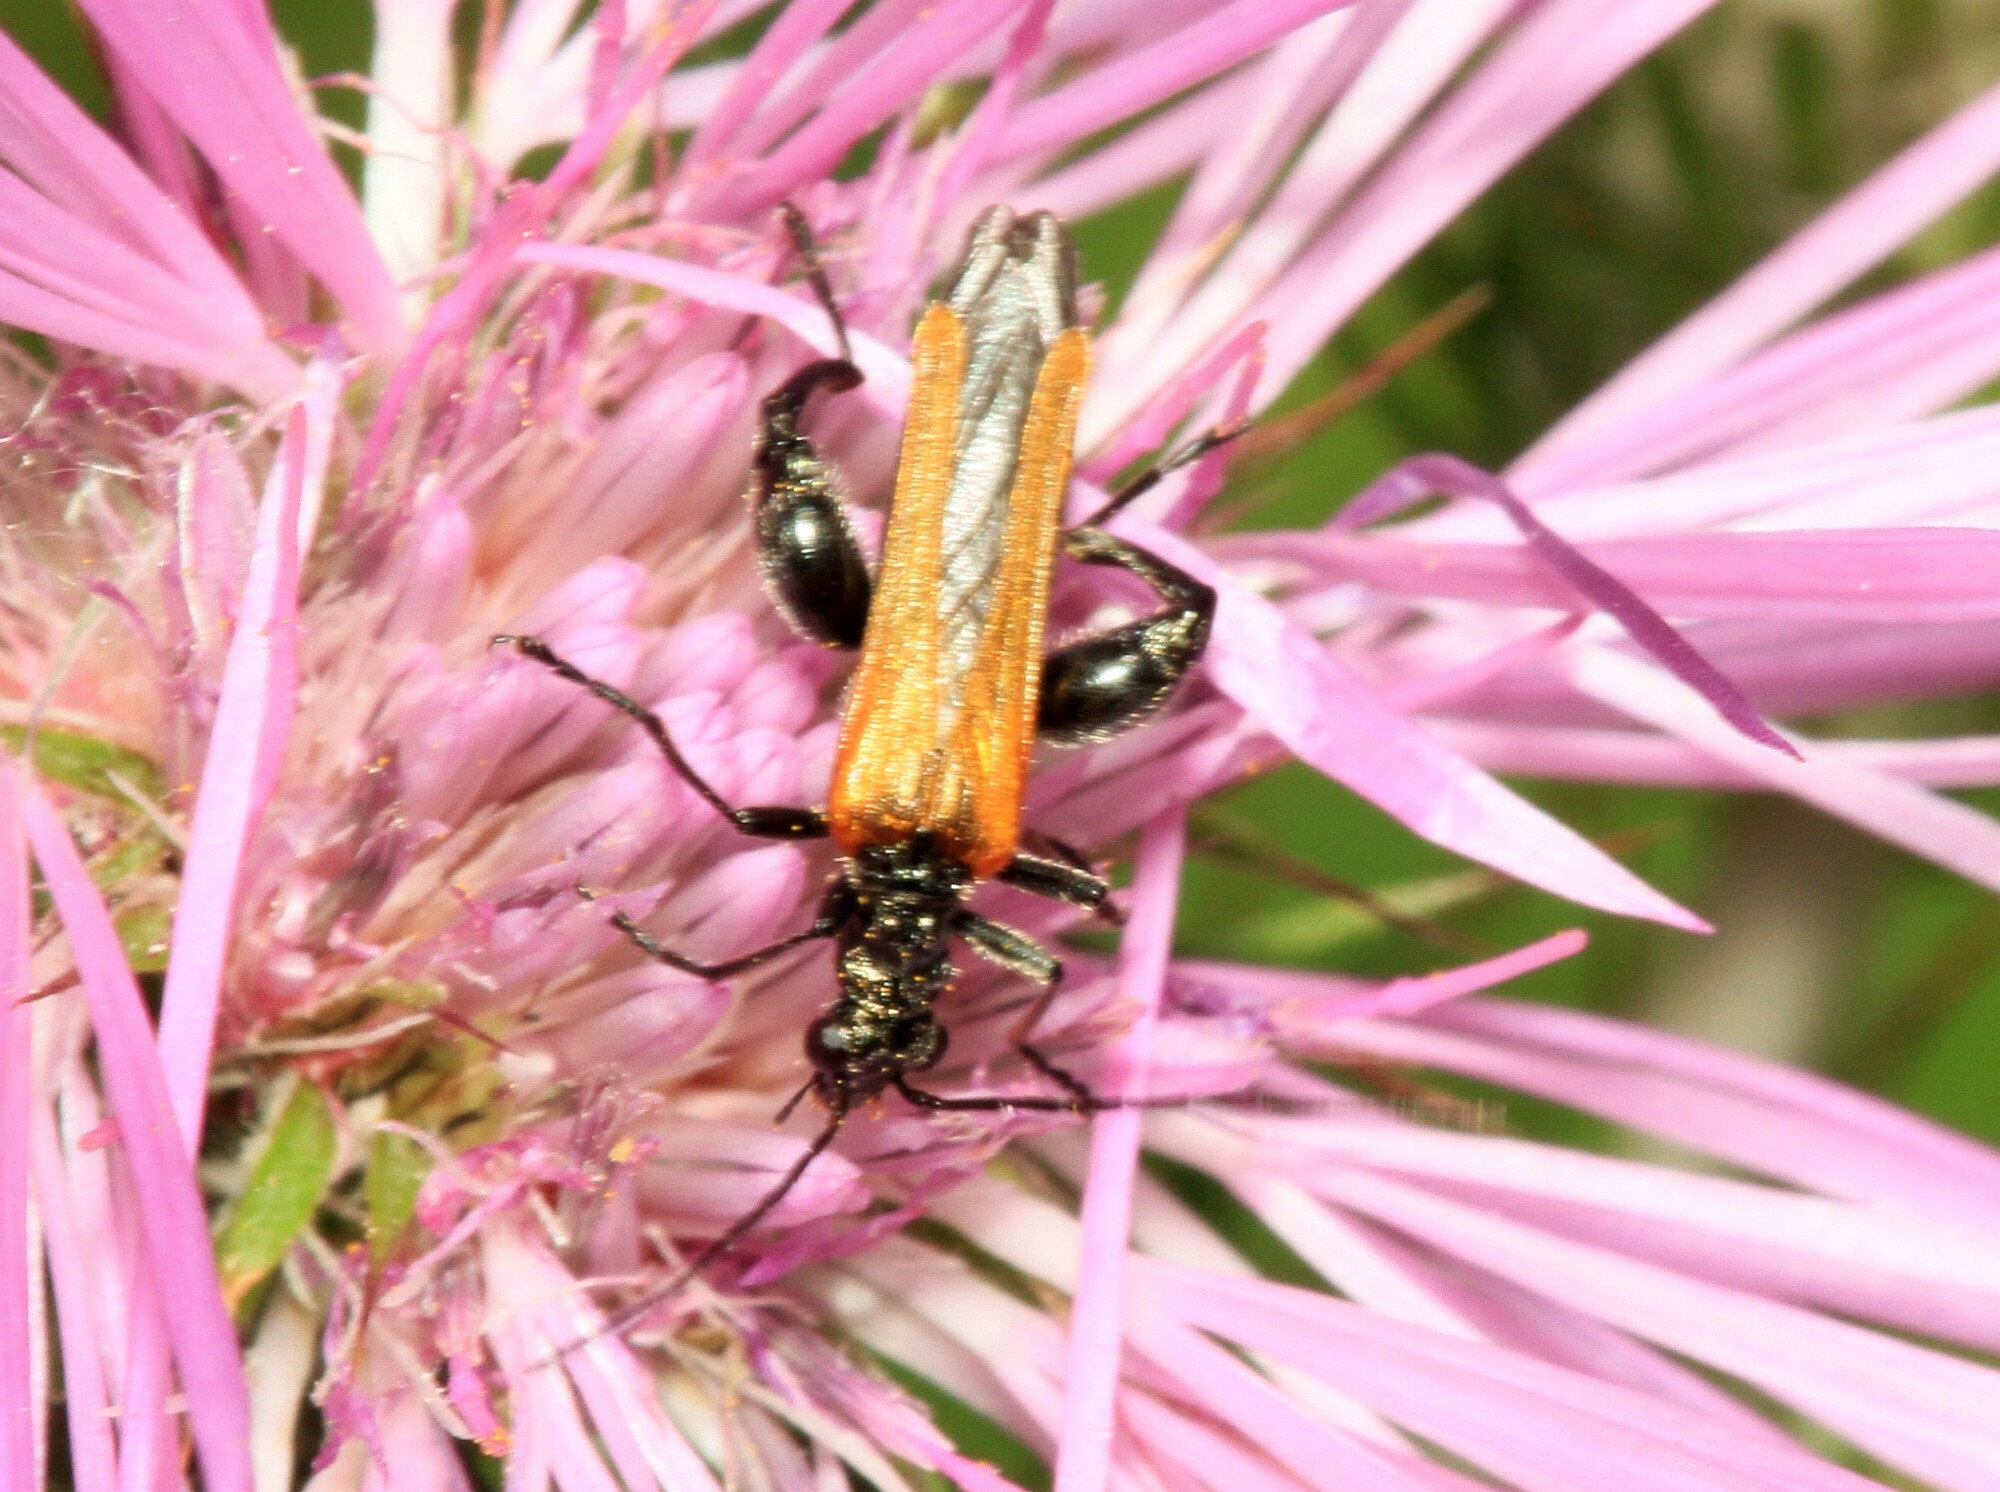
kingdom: Animalia
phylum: Arthropoda
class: Insecta
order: Coleoptera
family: Oedemeridae
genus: Oedemera
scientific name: Oedemera femorata
